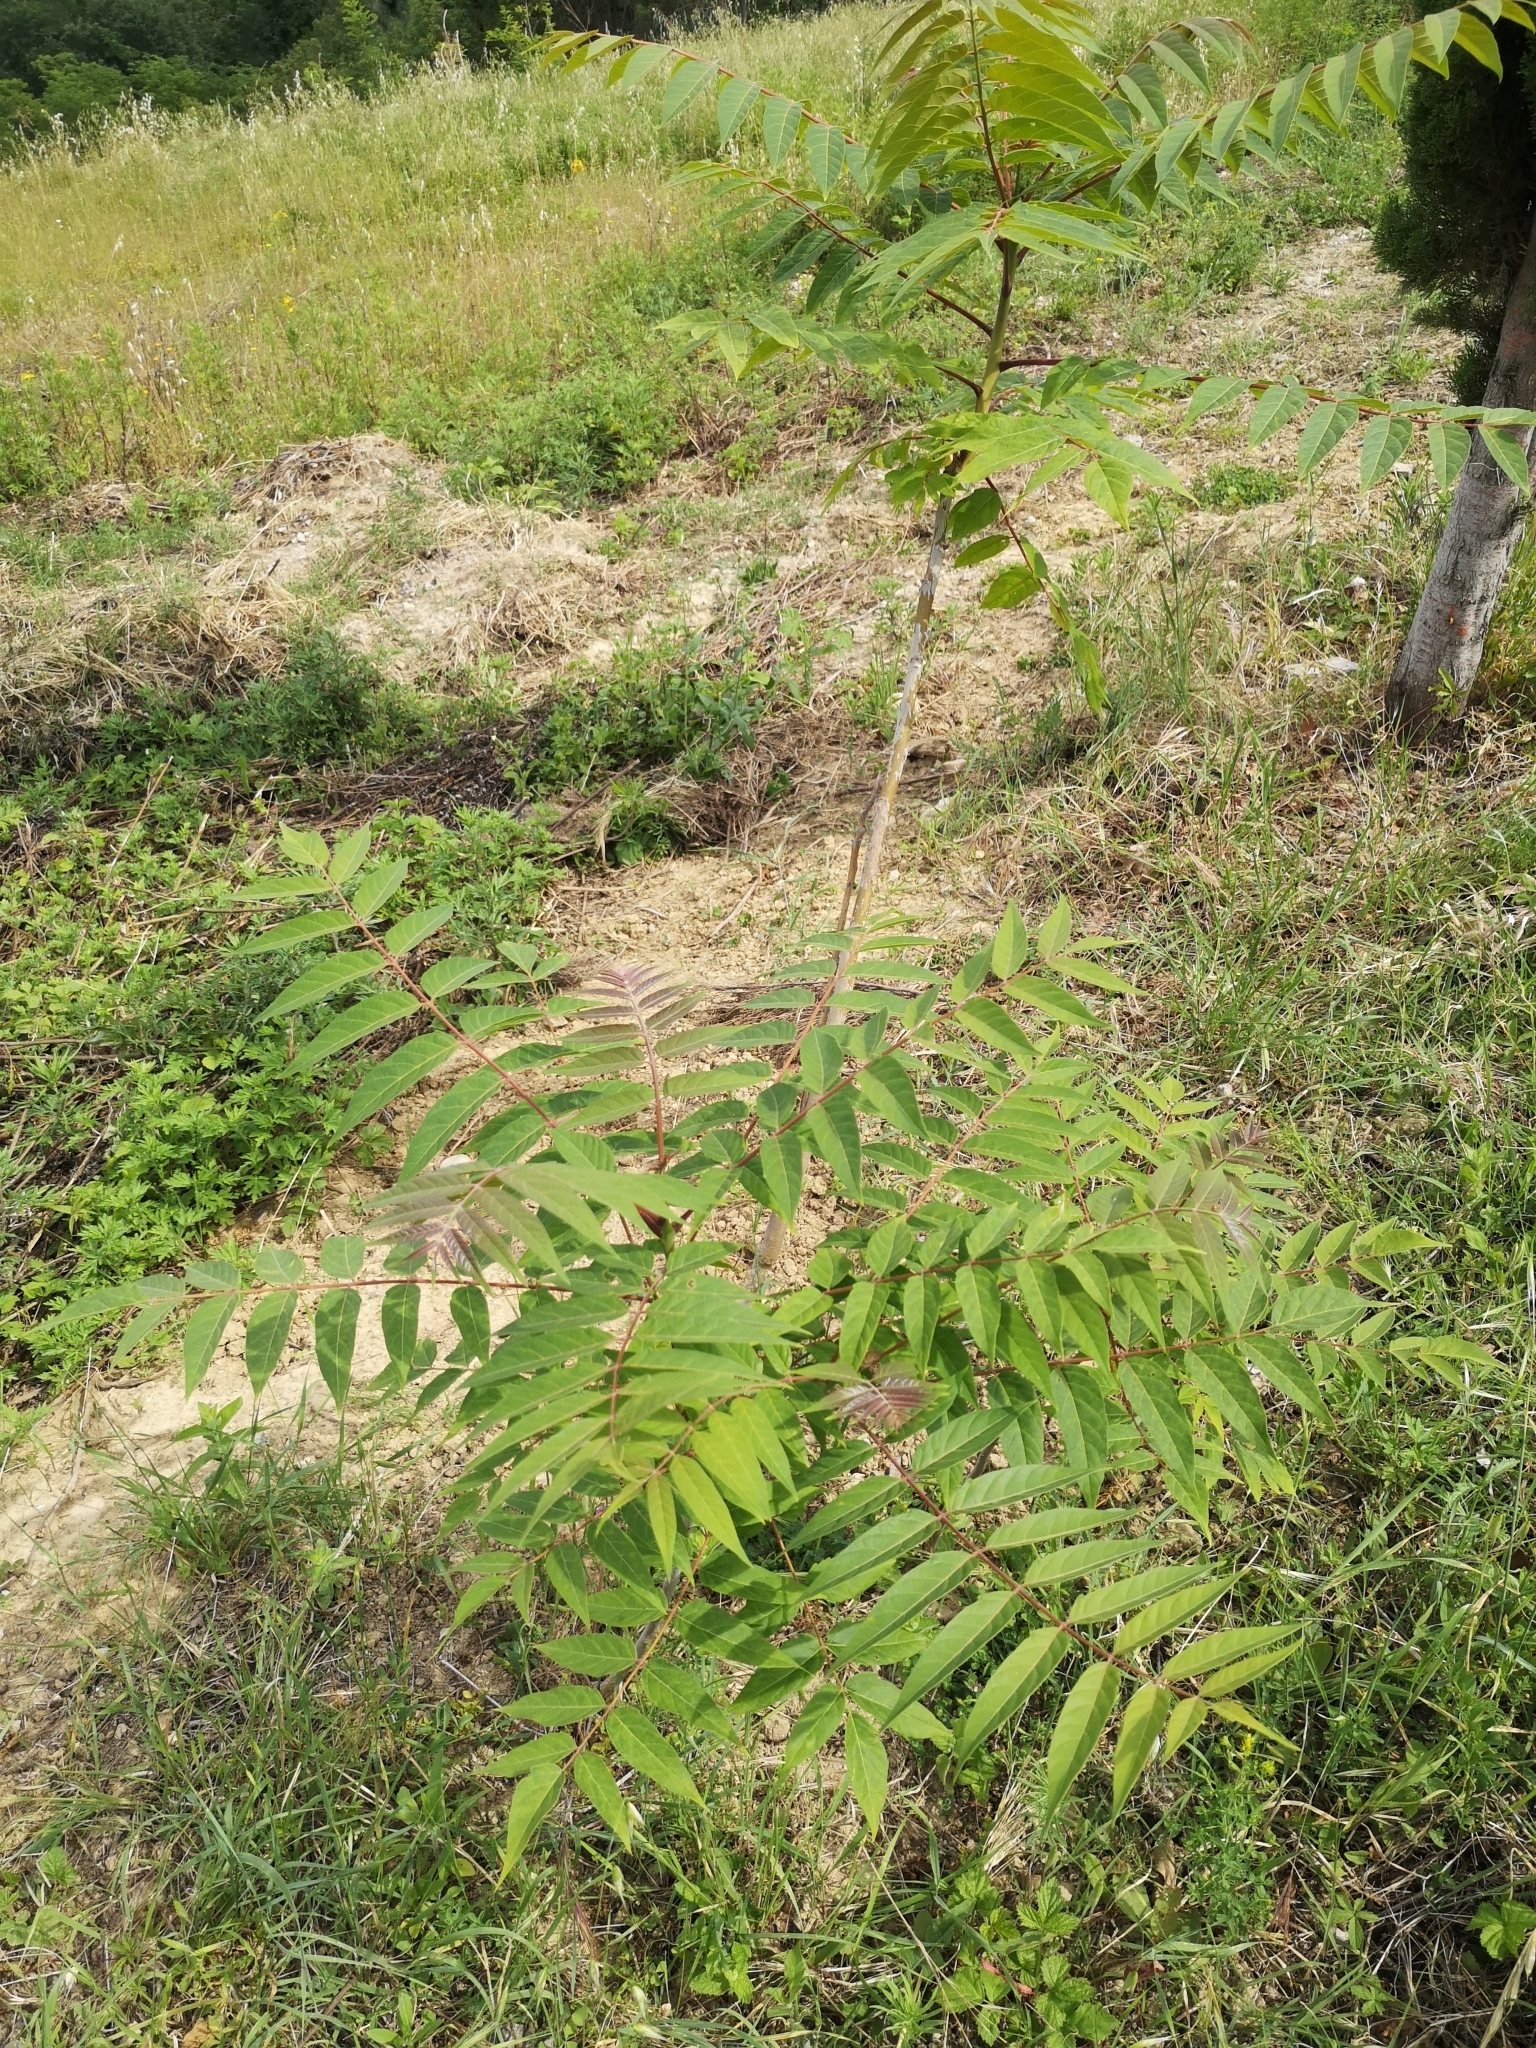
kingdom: Plantae
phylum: Tracheophyta
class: Magnoliopsida
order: Sapindales
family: Simaroubaceae
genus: Ailanthus
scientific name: Ailanthus altissima
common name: Tree-of-heaven
